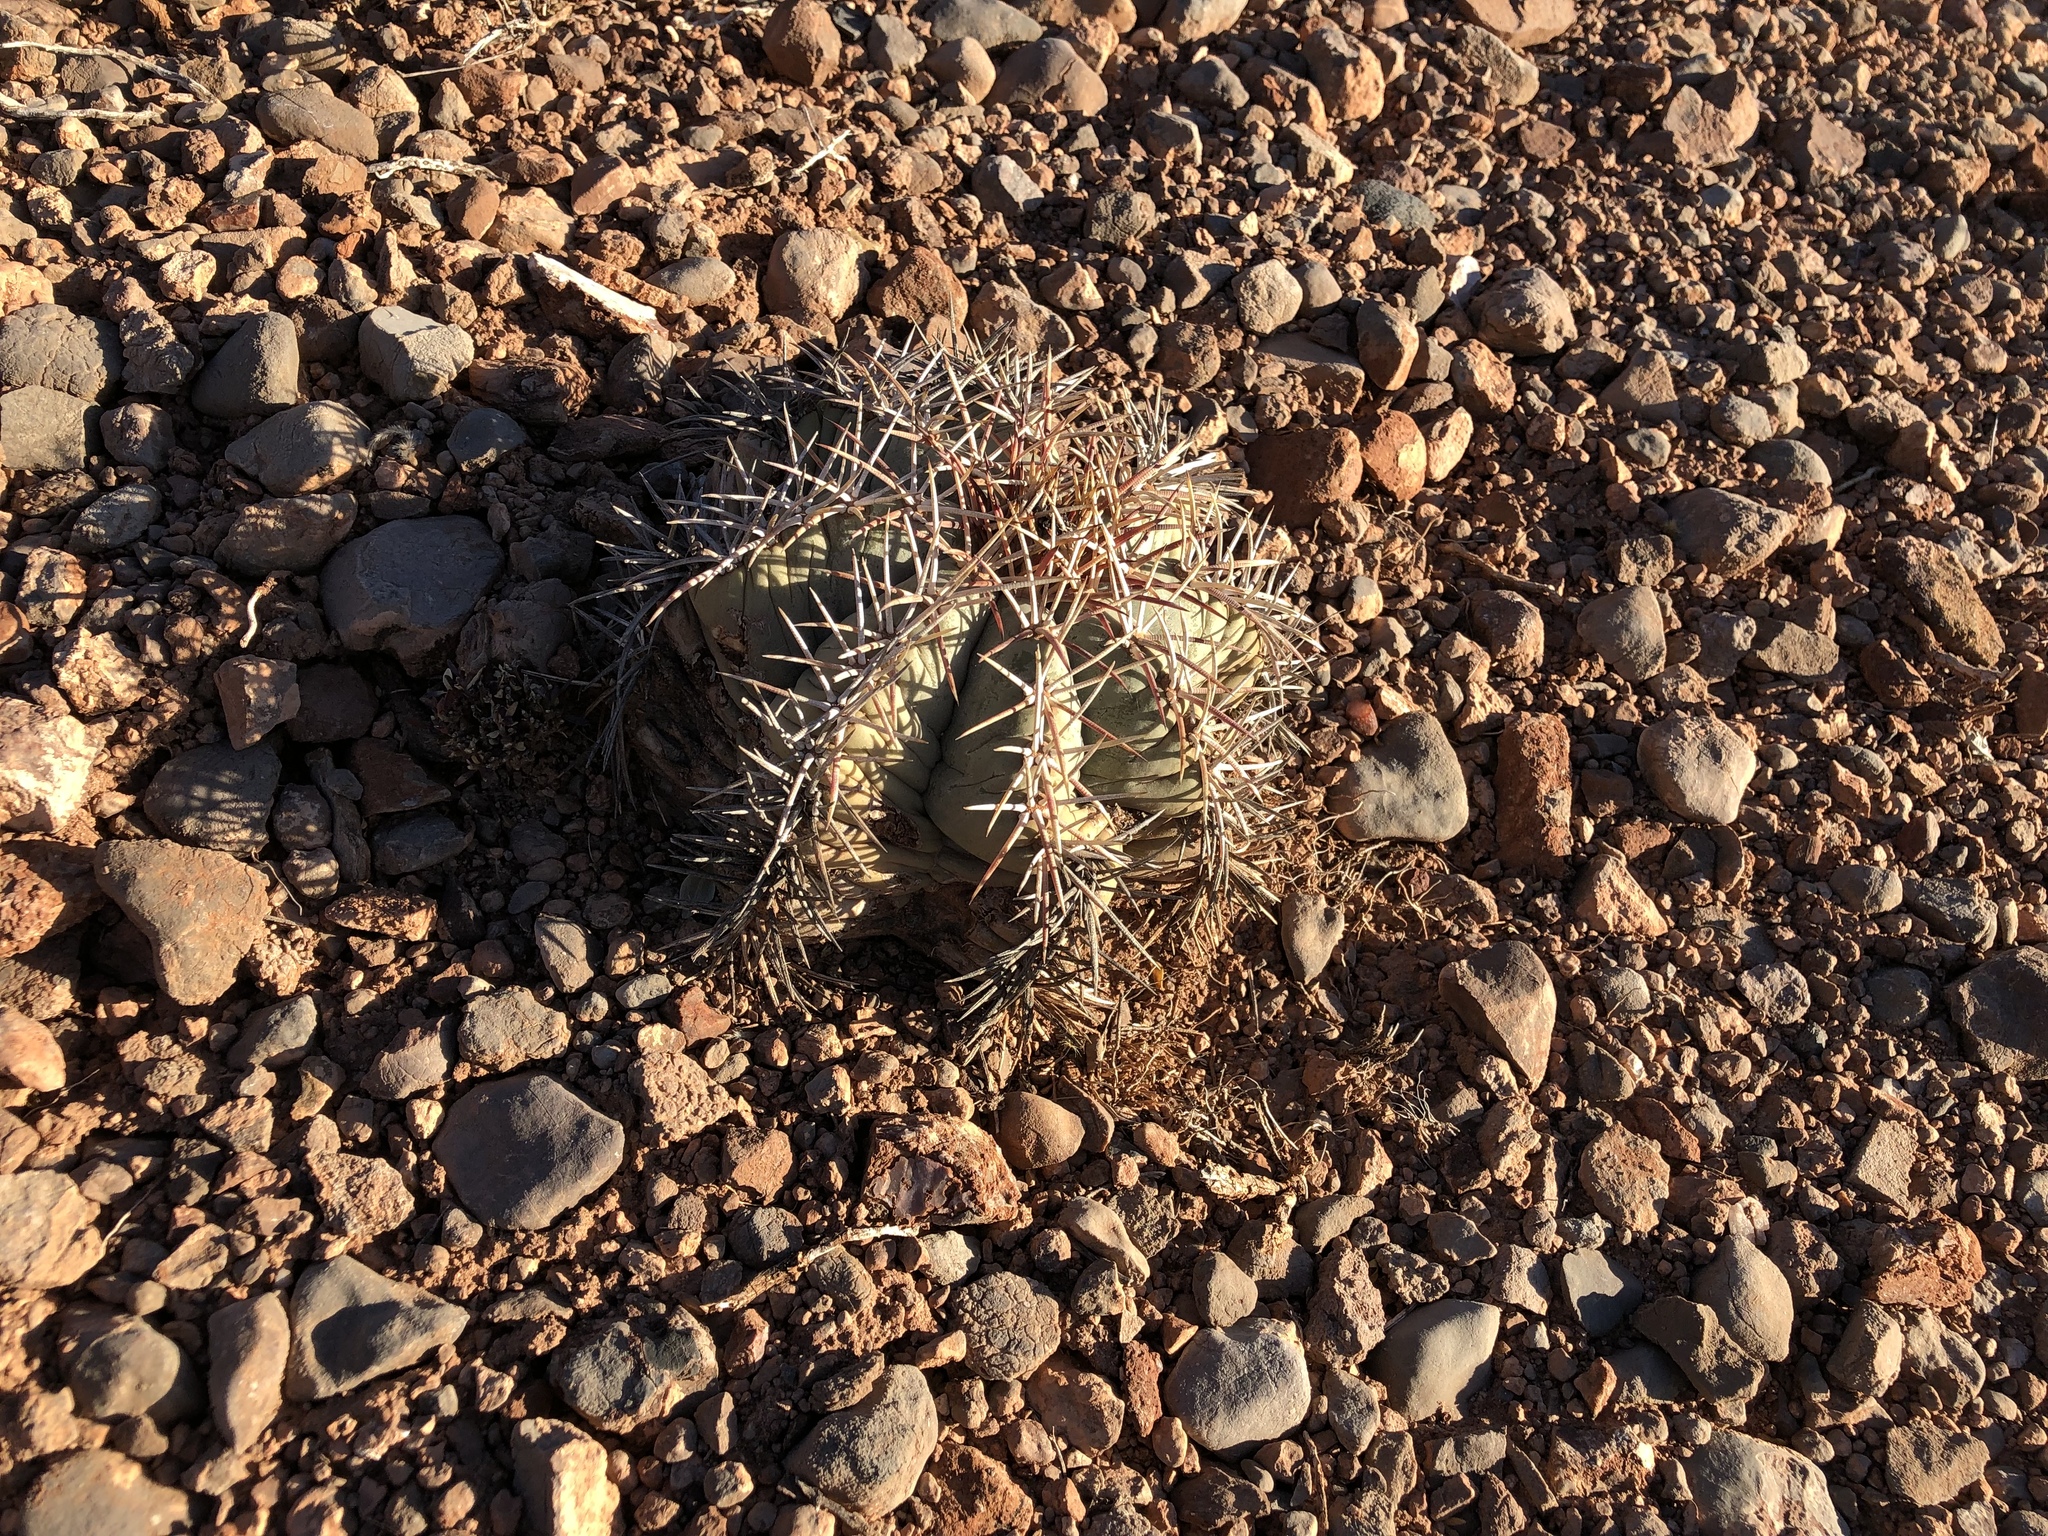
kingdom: Plantae
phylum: Tracheophyta
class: Magnoliopsida
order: Caryophyllales
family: Cactaceae
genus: Echinocactus
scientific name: Echinocactus horizonthalonius
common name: Devilshead
